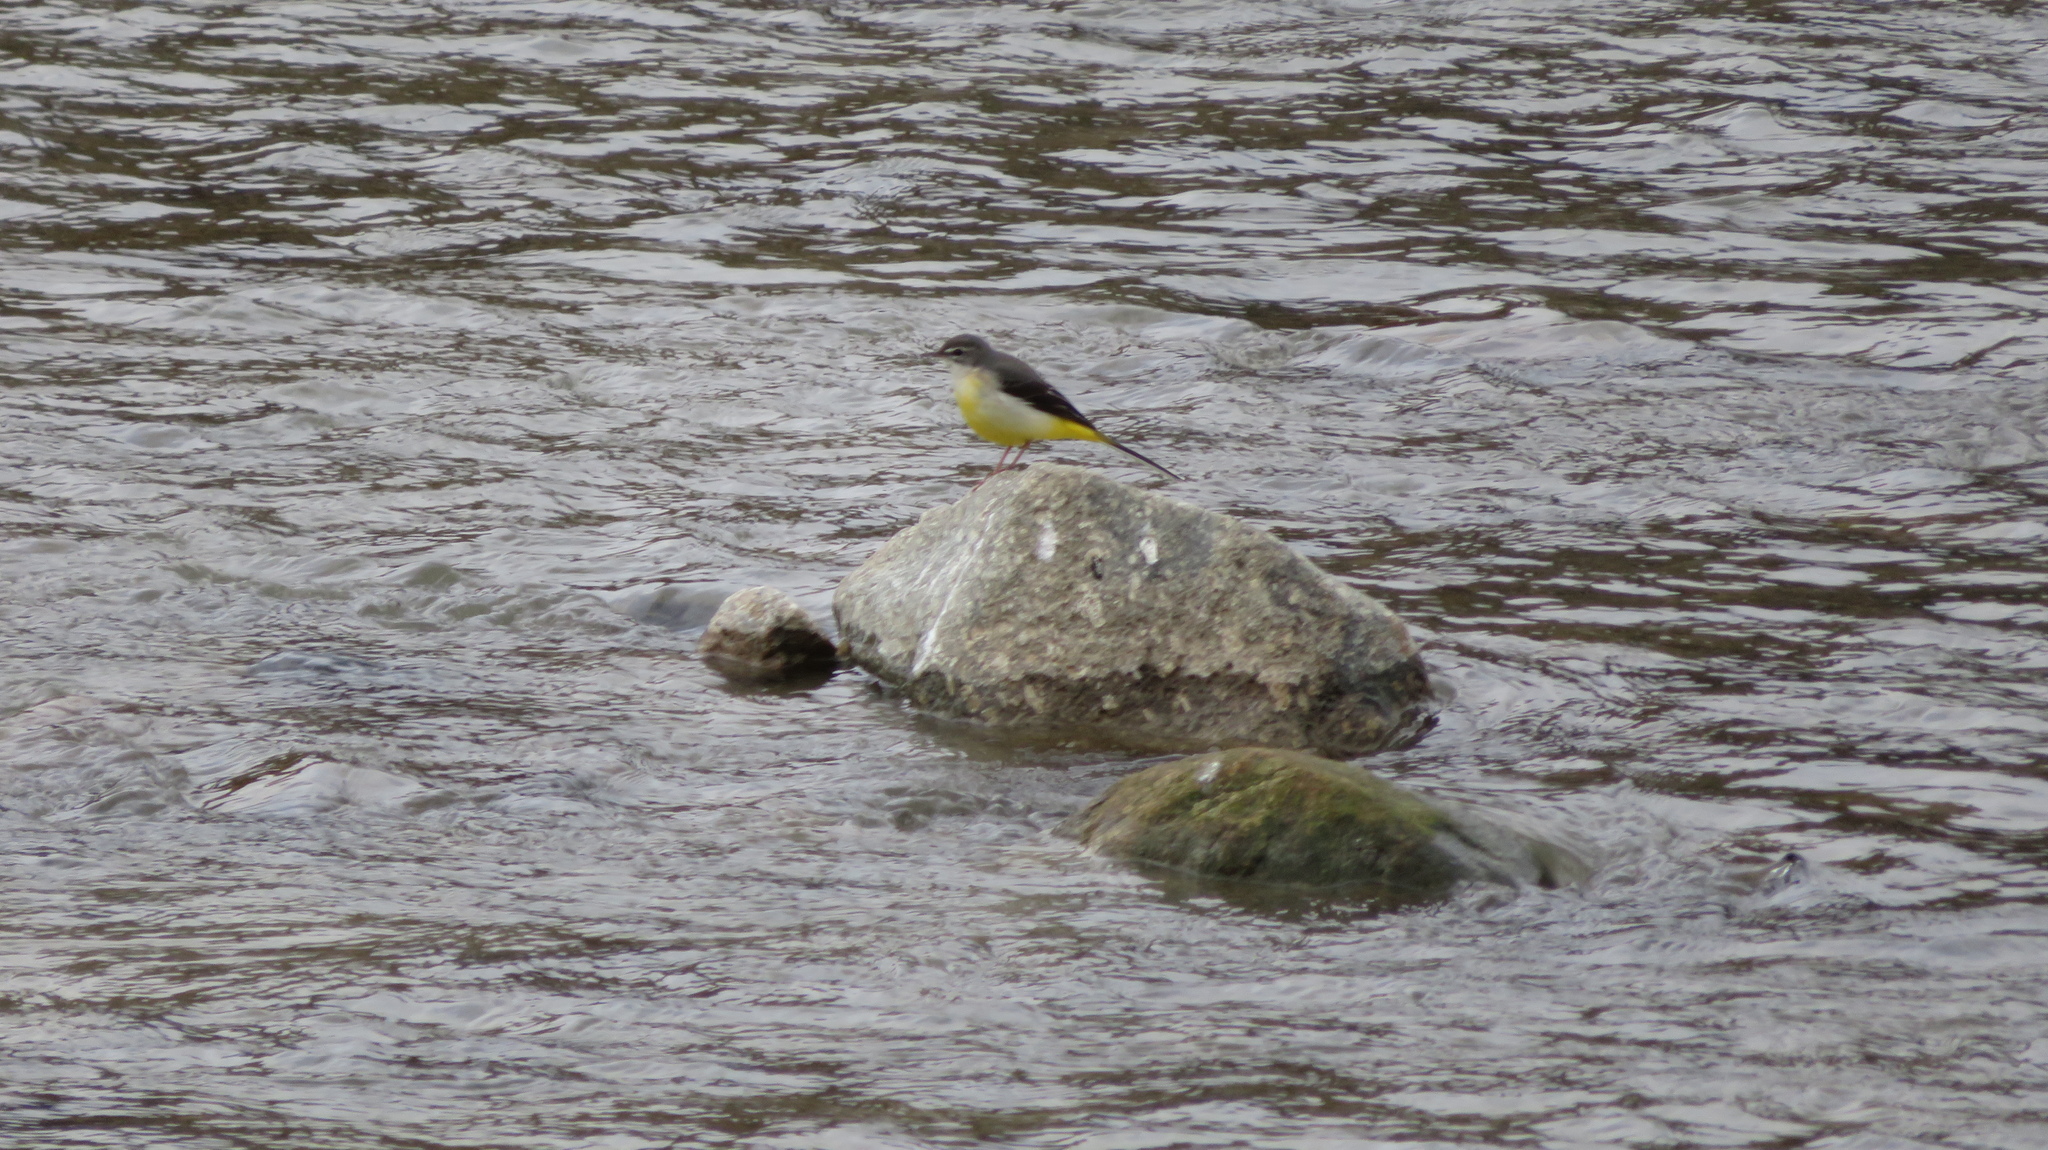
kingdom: Animalia
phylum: Chordata
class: Aves
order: Passeriformes
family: Motacillidae
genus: Motacilla
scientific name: Motacilla cinerea
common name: Grey wagtail
